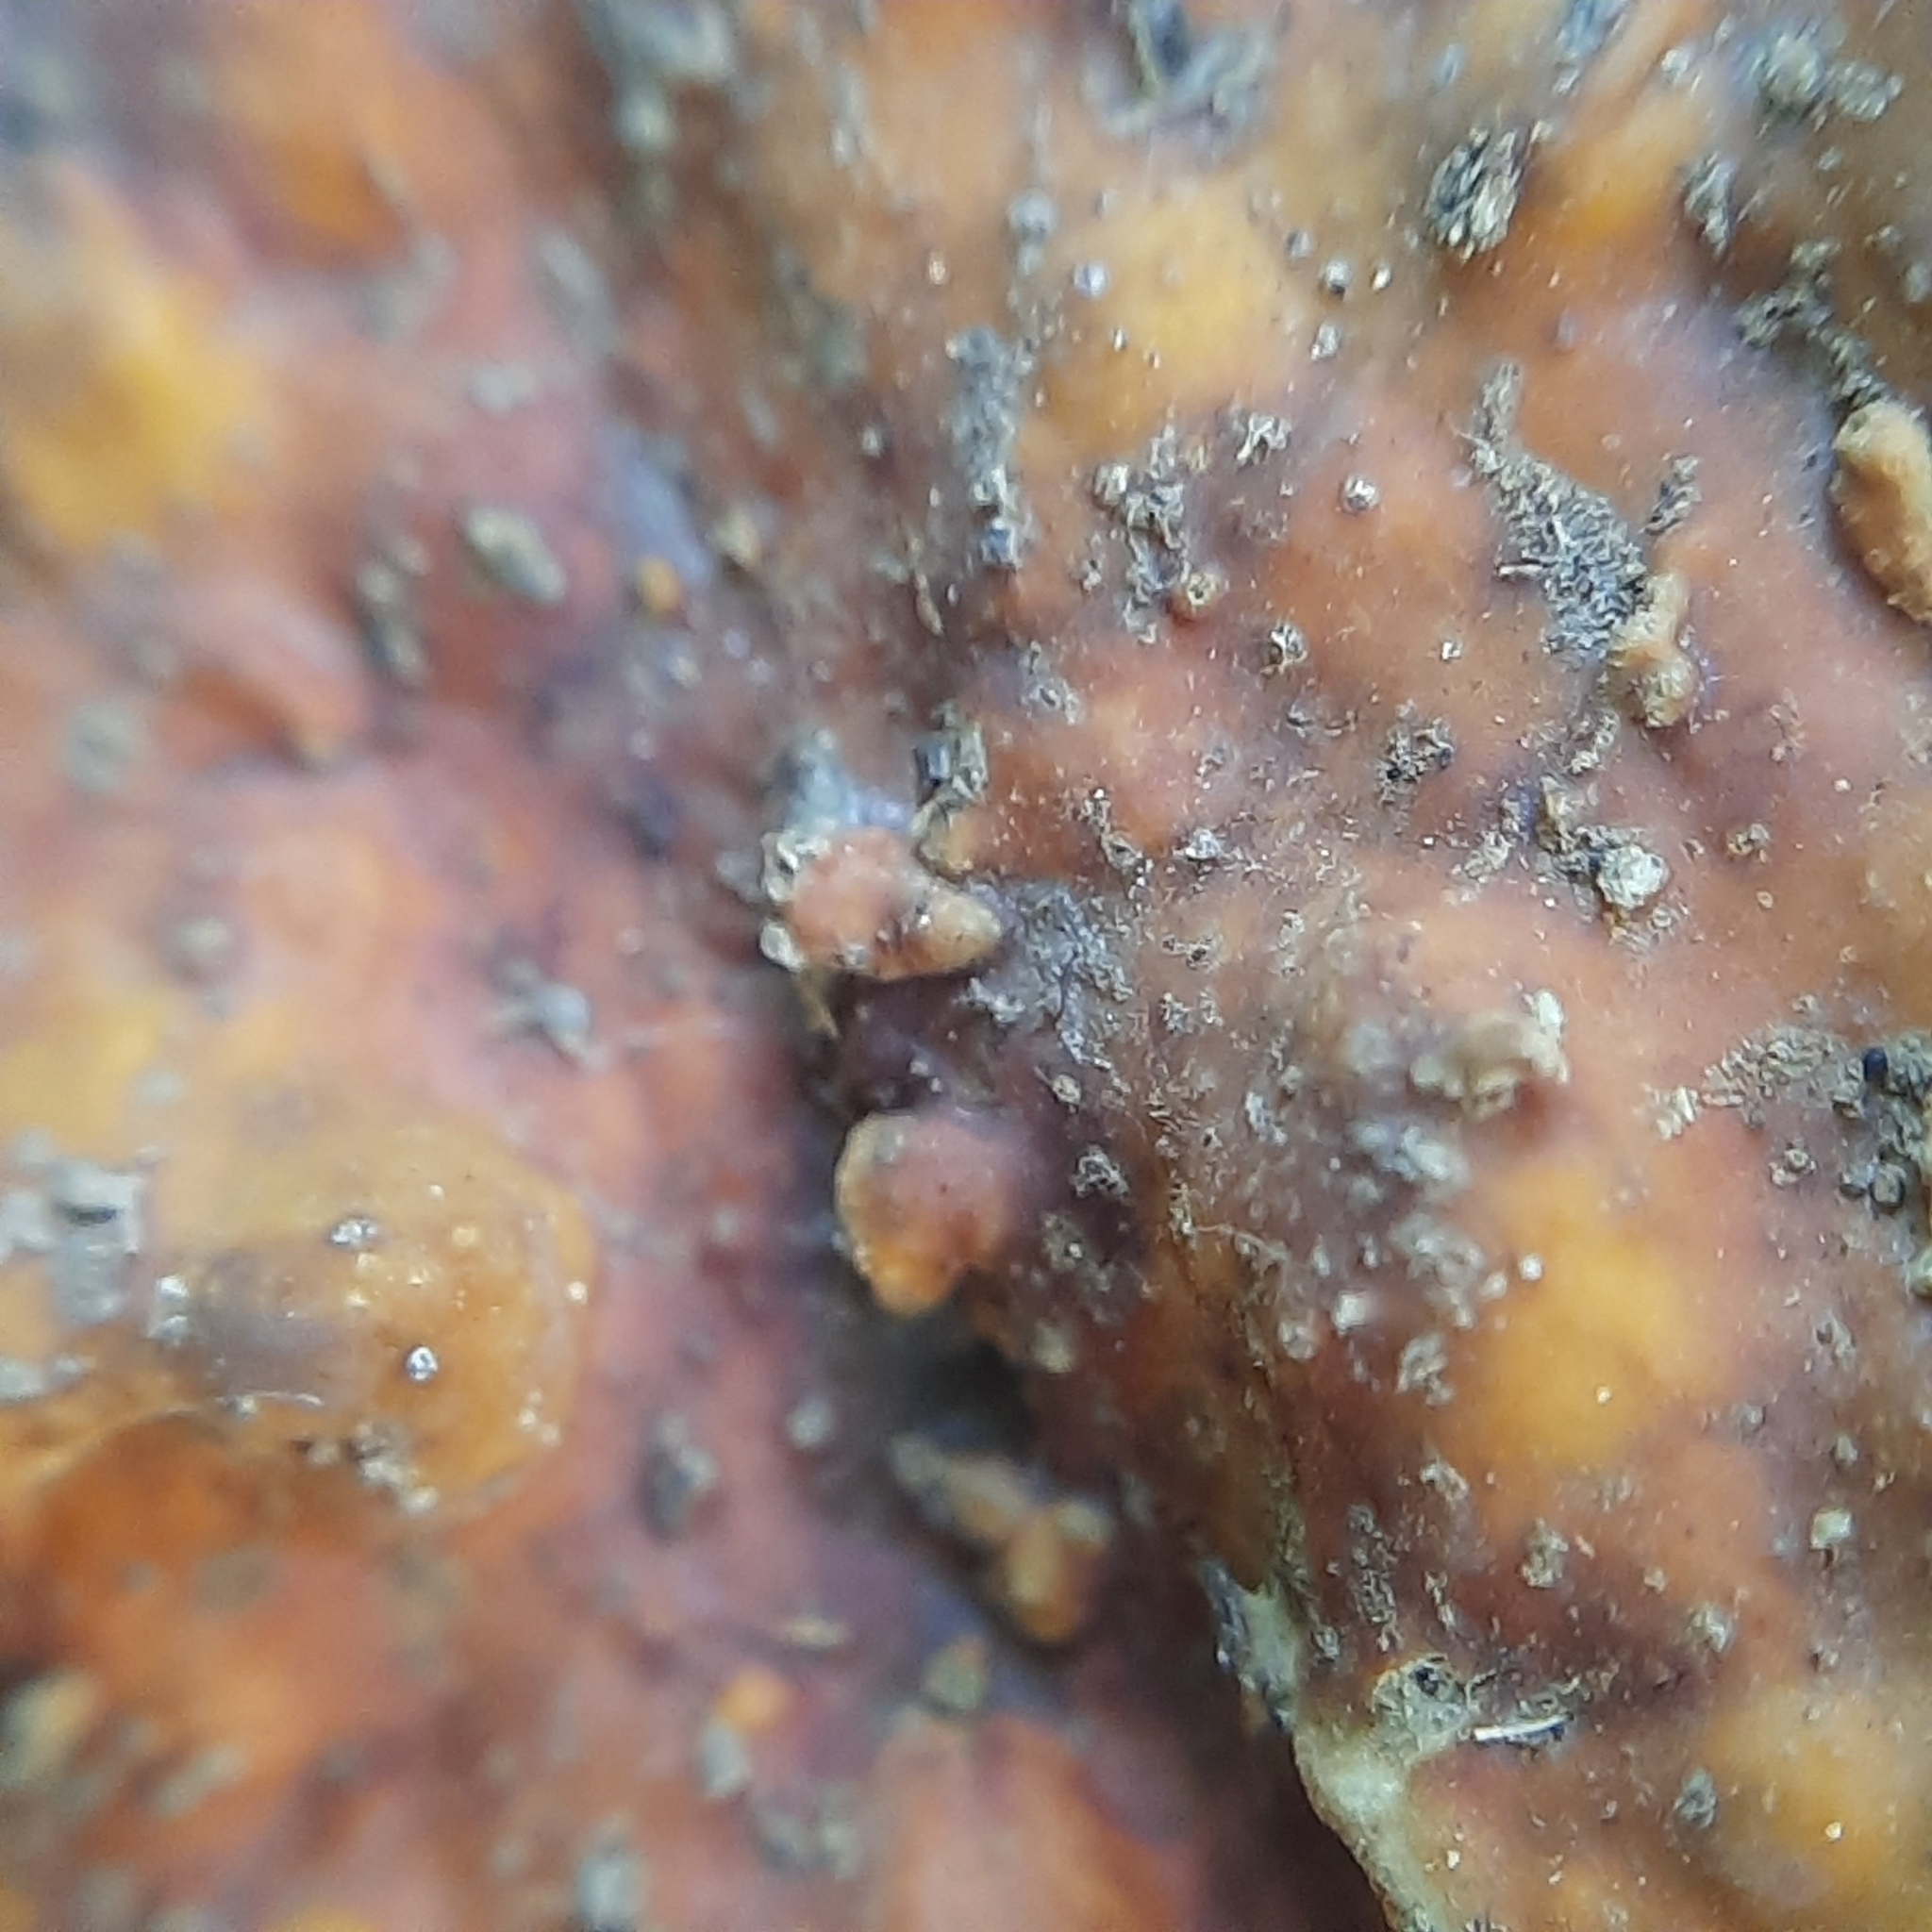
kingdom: Fungi
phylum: Basidiomycota
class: Agaricomycetes
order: Russulales
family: Stereaceae
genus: Stereum
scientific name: Stereum hirsutum
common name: Hairy curtain crust
